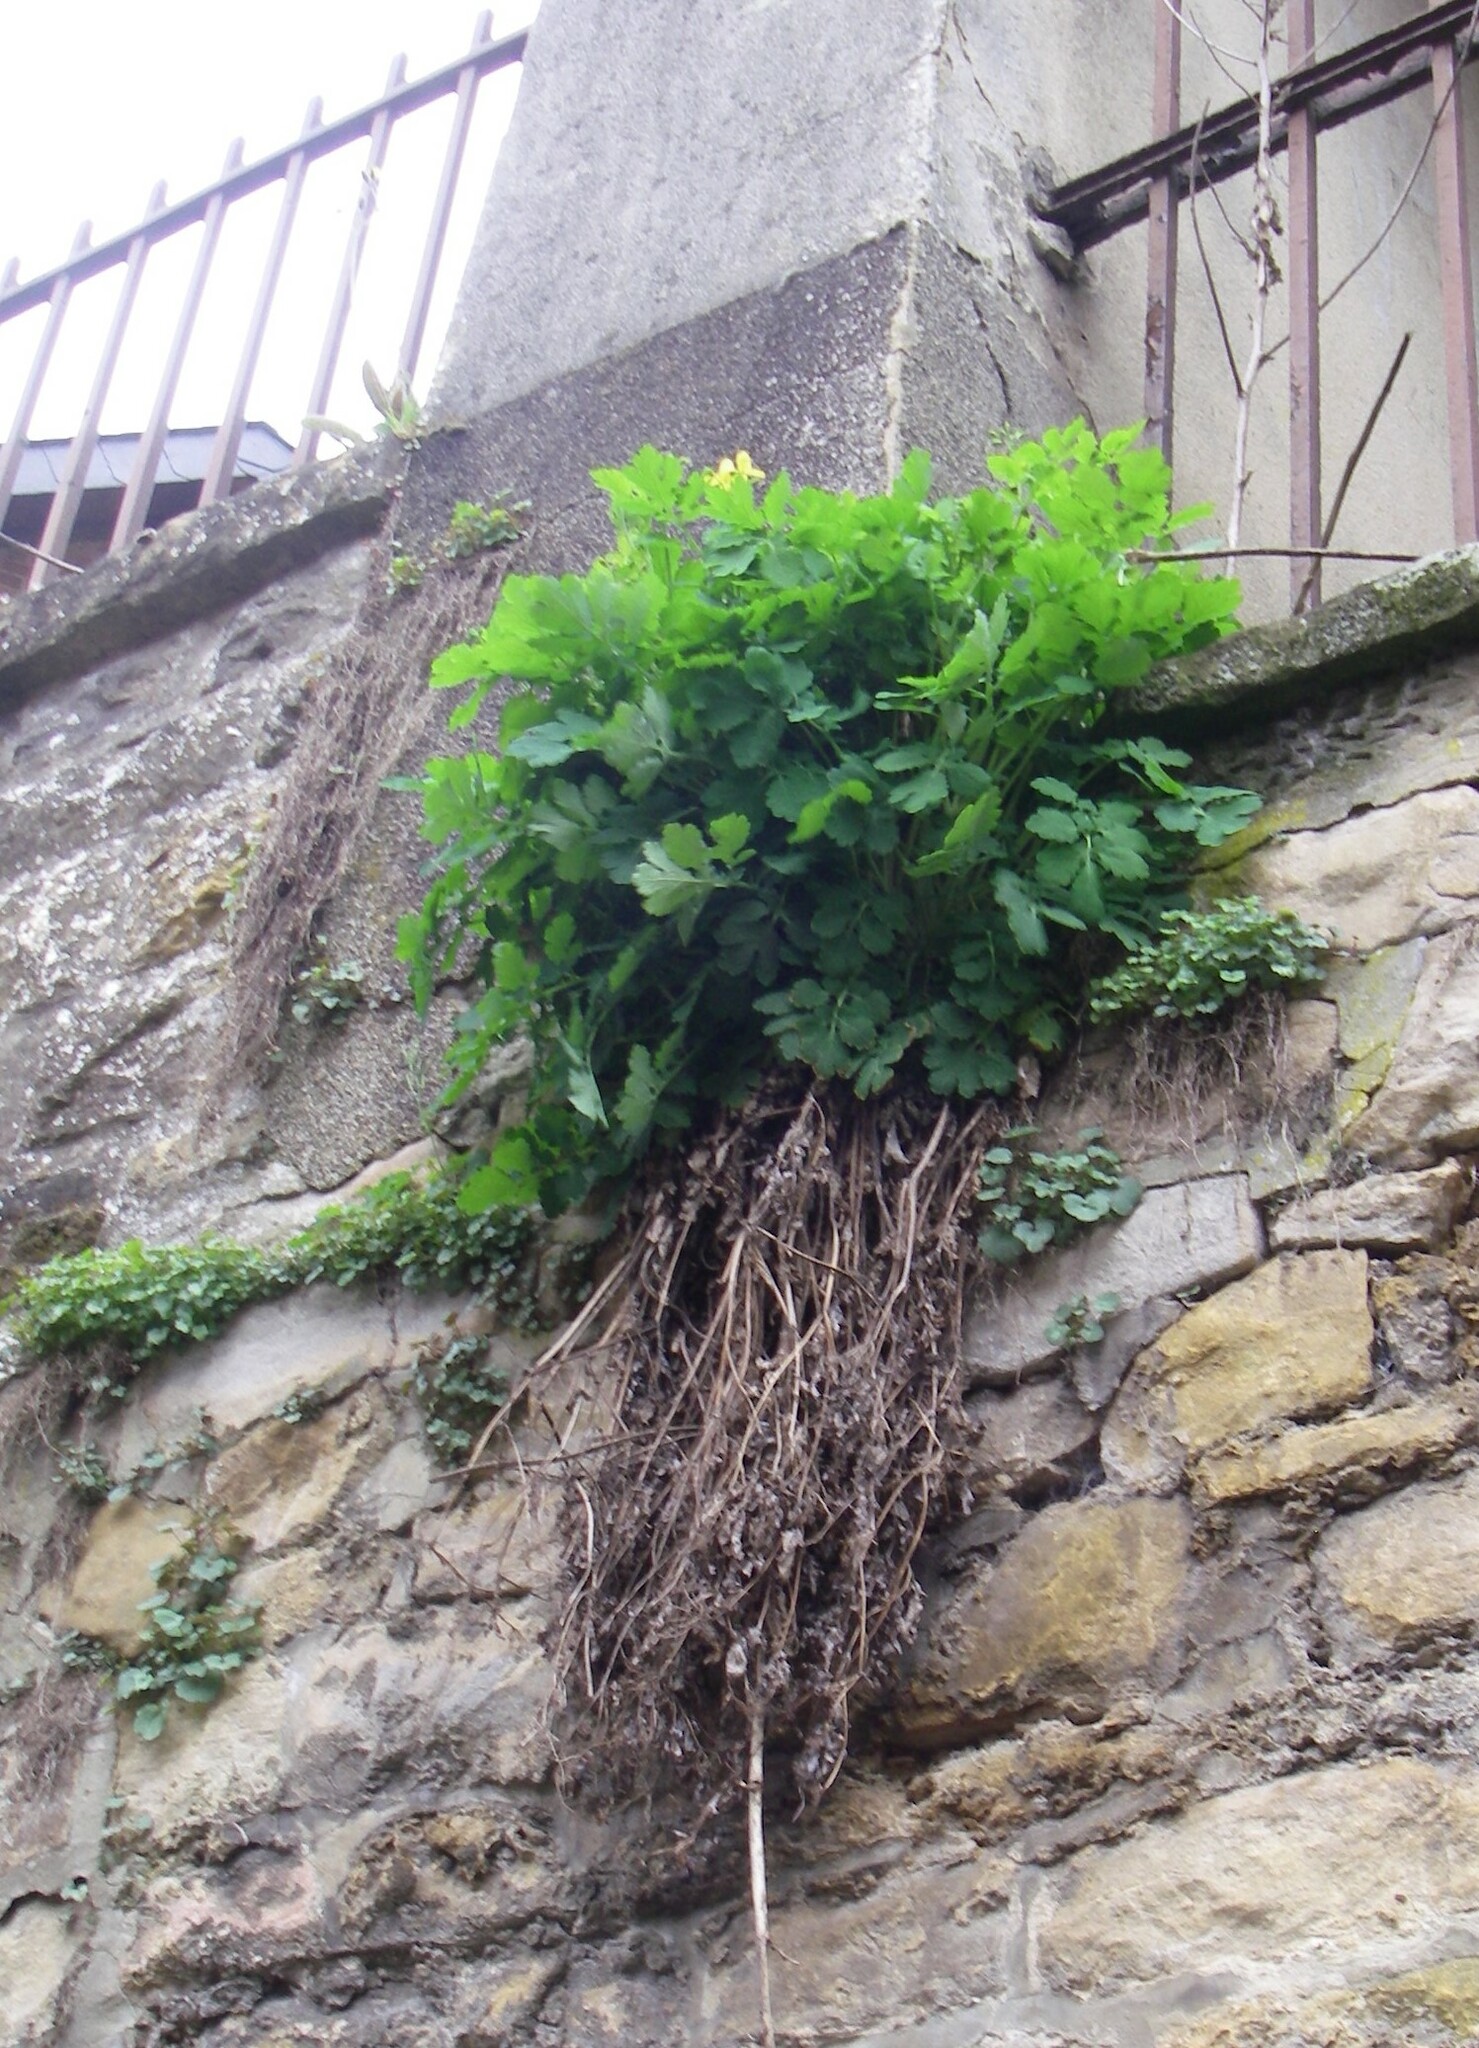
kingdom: Plantae
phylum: Tracheophyta
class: Magnoliopsida
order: Ranunculales
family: Papaveraceae
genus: Chelidonium
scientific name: Chelidonium majus
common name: Greater celandine
